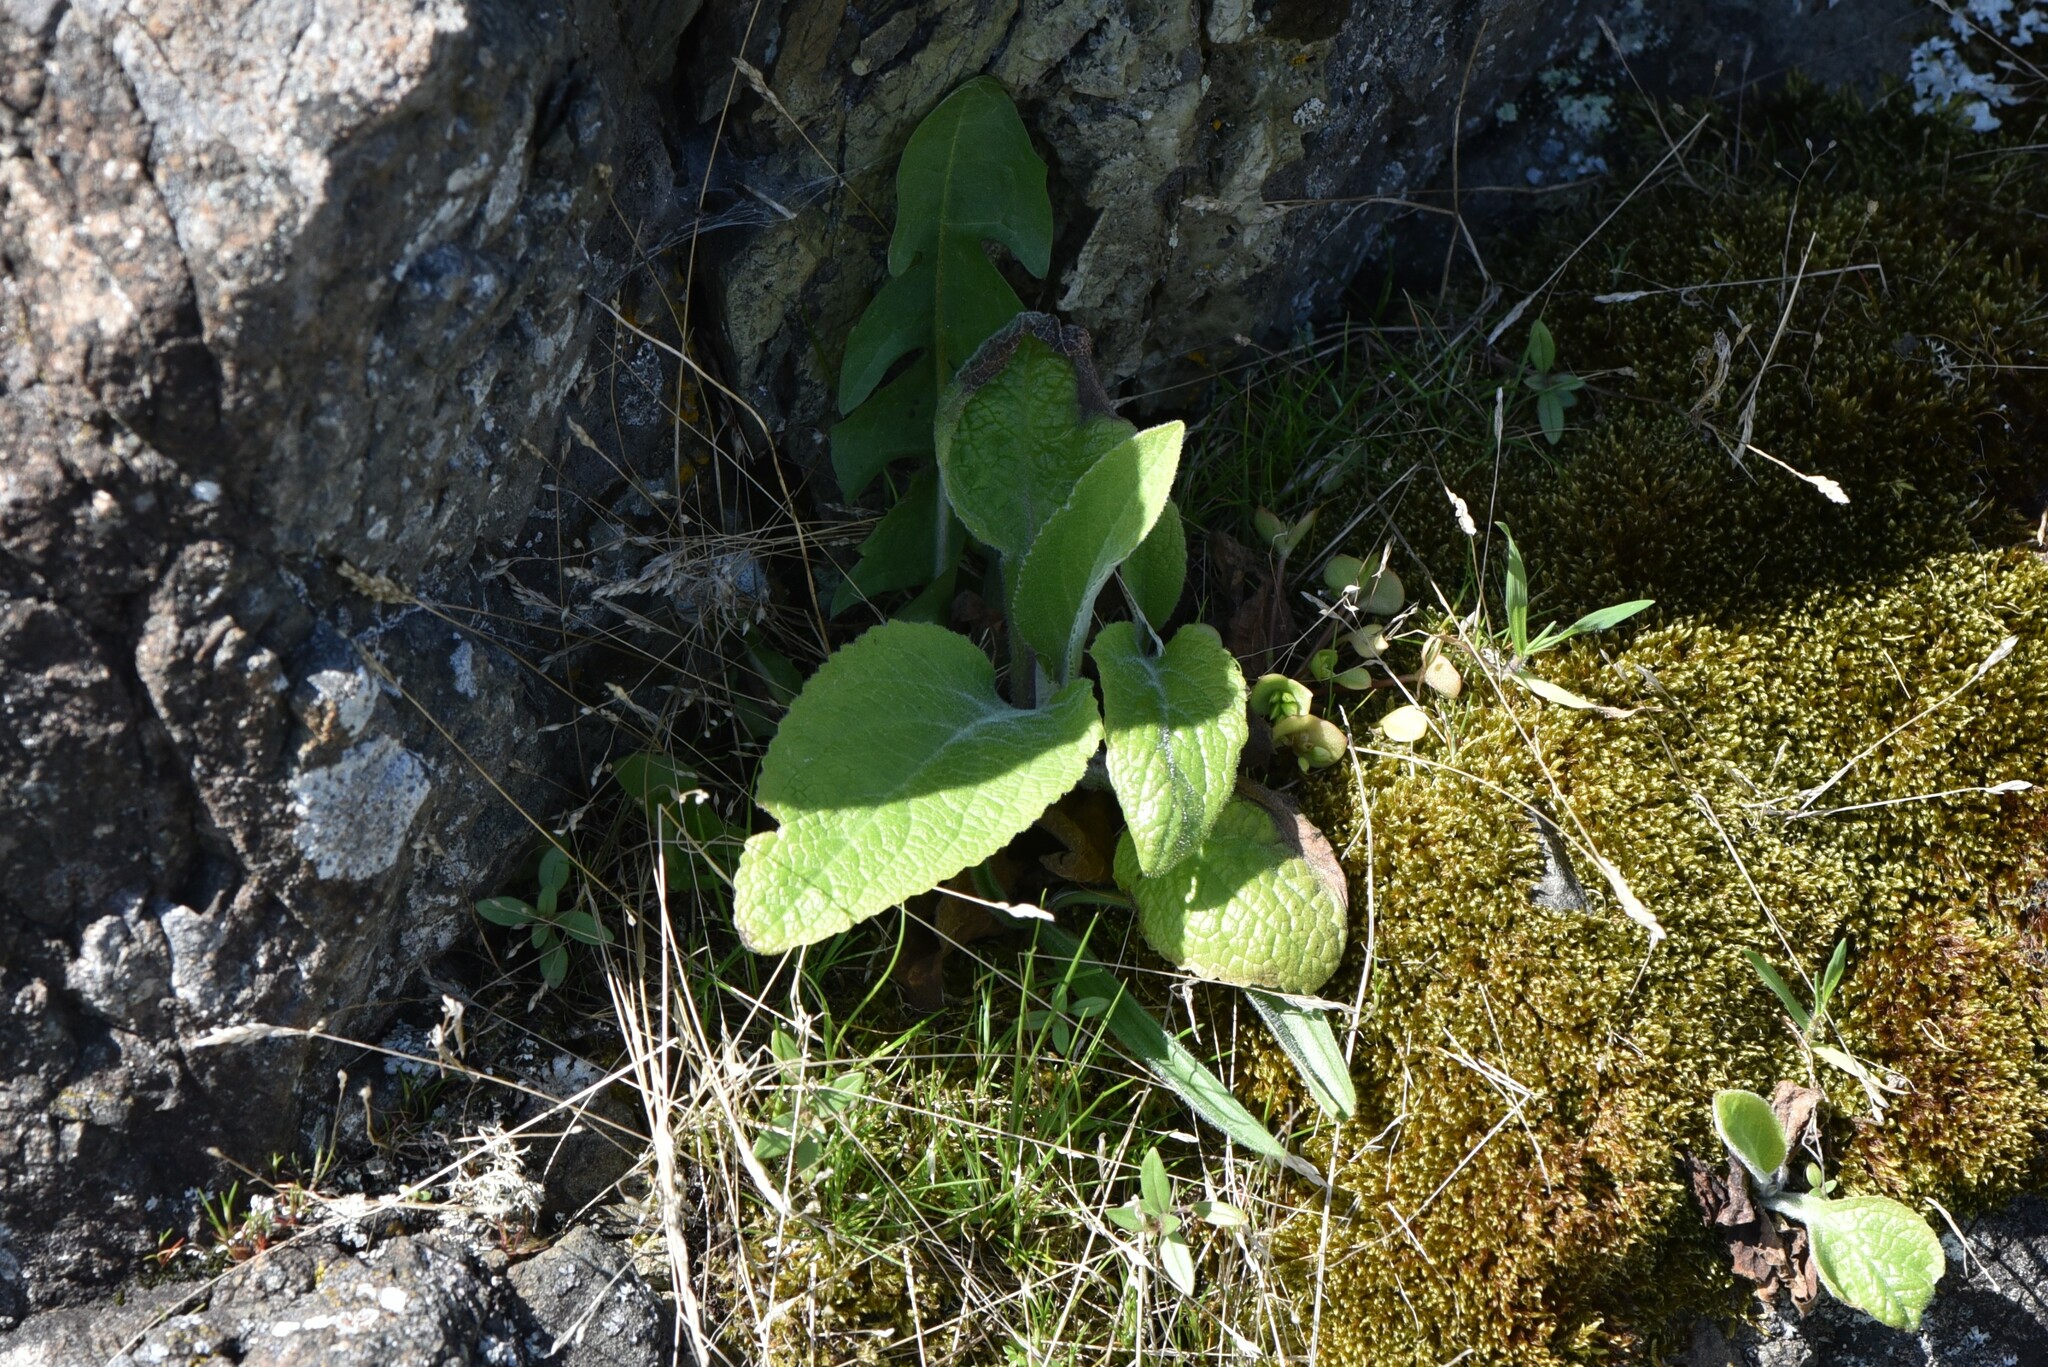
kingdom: Plantae
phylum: Tracheophyta
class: Magnoliopsida
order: Lamiales
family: Plantaginaceae
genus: Digitalis
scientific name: Digitalis purpurea
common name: Foxglove
